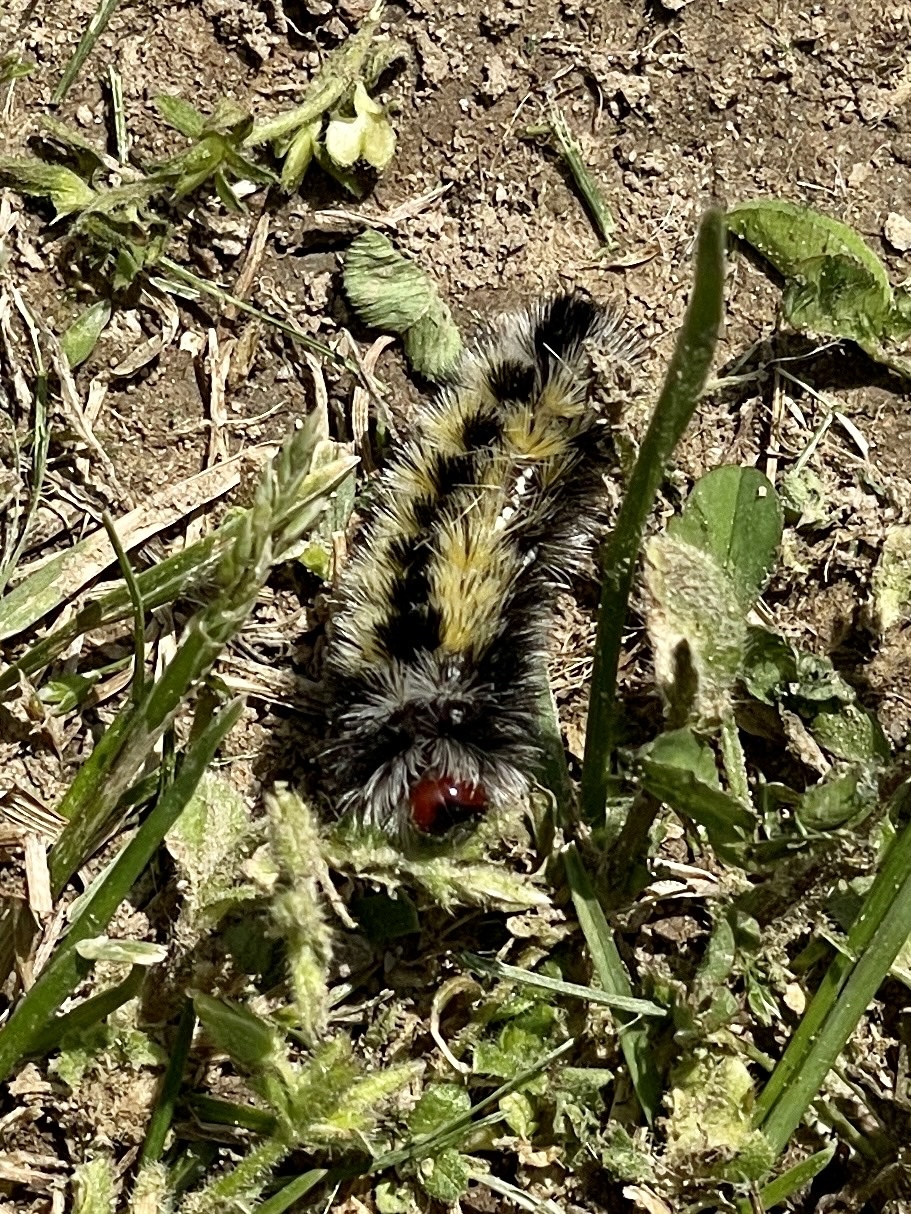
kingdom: Animalia
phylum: Arthropoda
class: Insecta
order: Lepidoptera
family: Erebidae
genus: Ctenucha
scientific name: Ctenucha virginica
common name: Virginia ctenucha moth
